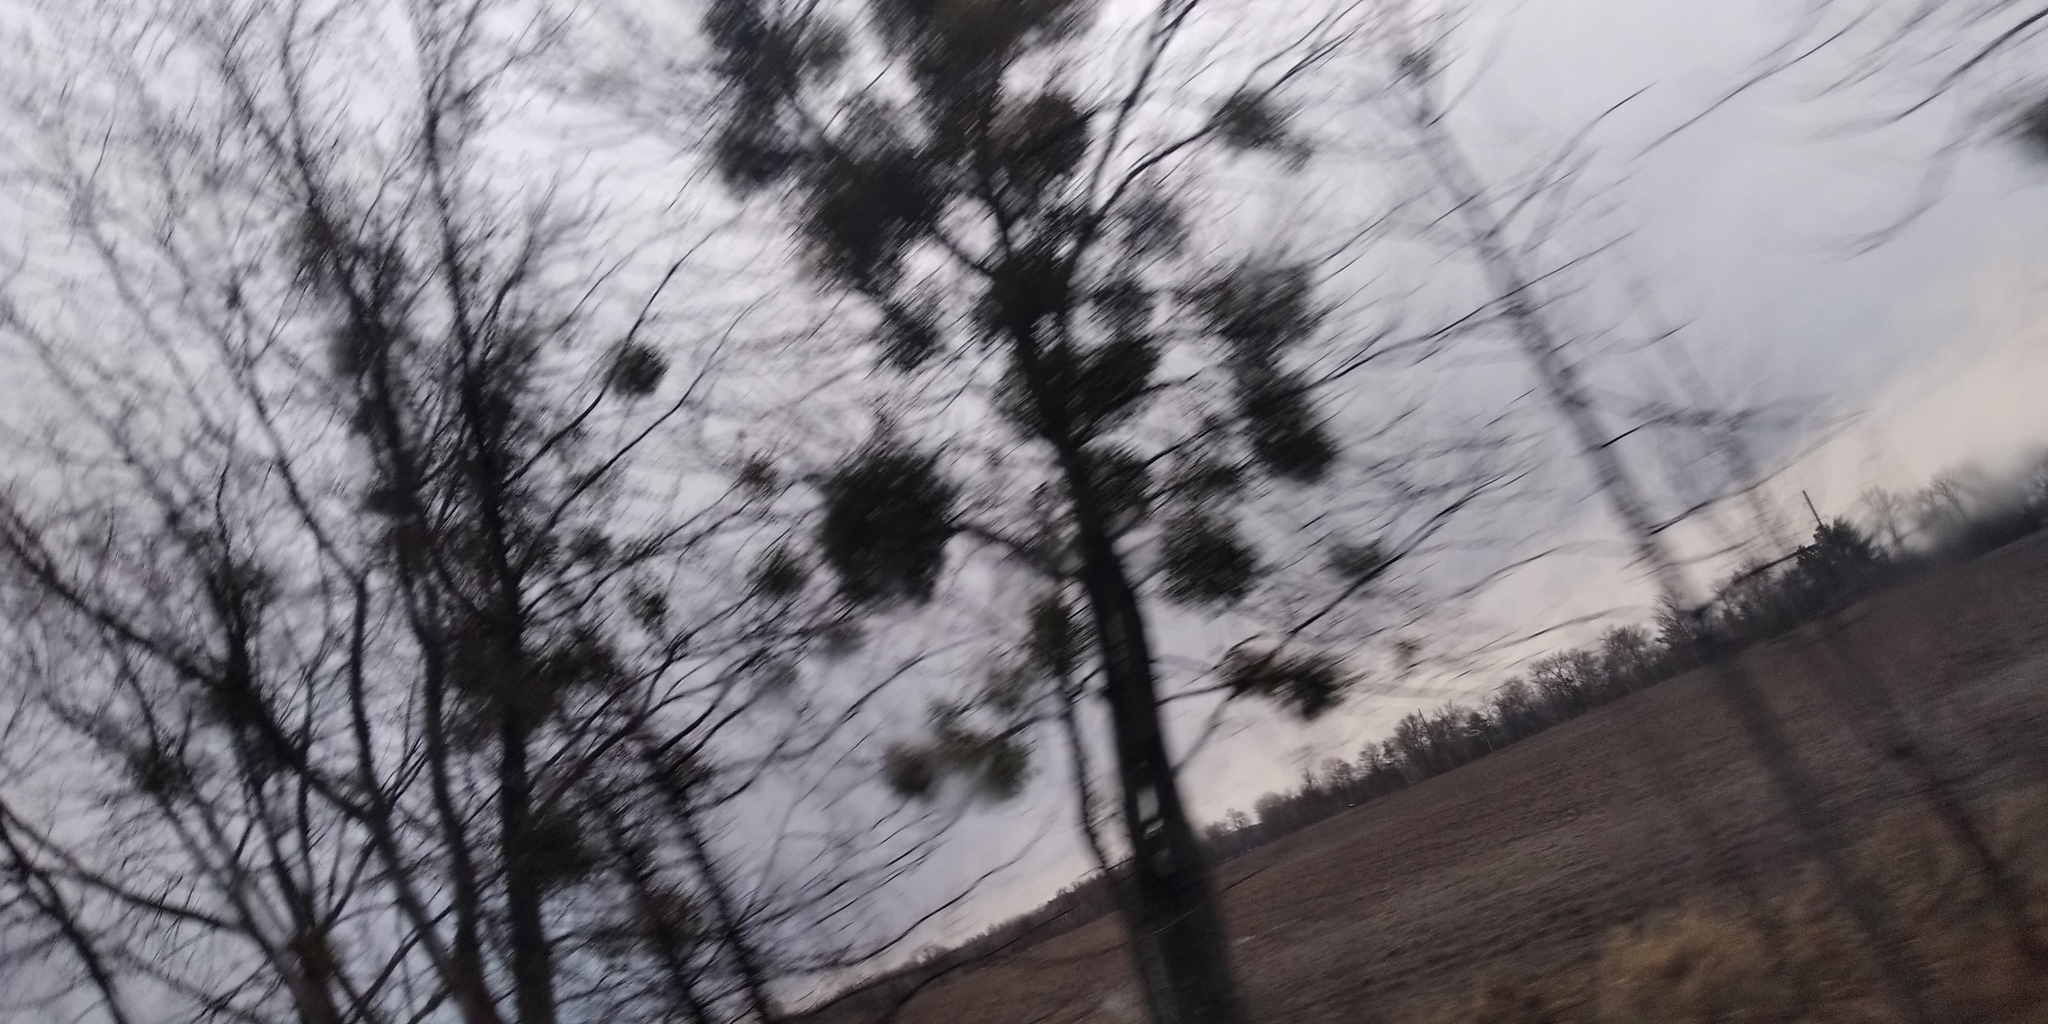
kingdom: Plantae
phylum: Tracheophyta
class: Magnoliopsida
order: Santalales
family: Viscaceae
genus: Viscum
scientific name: Viscum album
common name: Mistletoe
